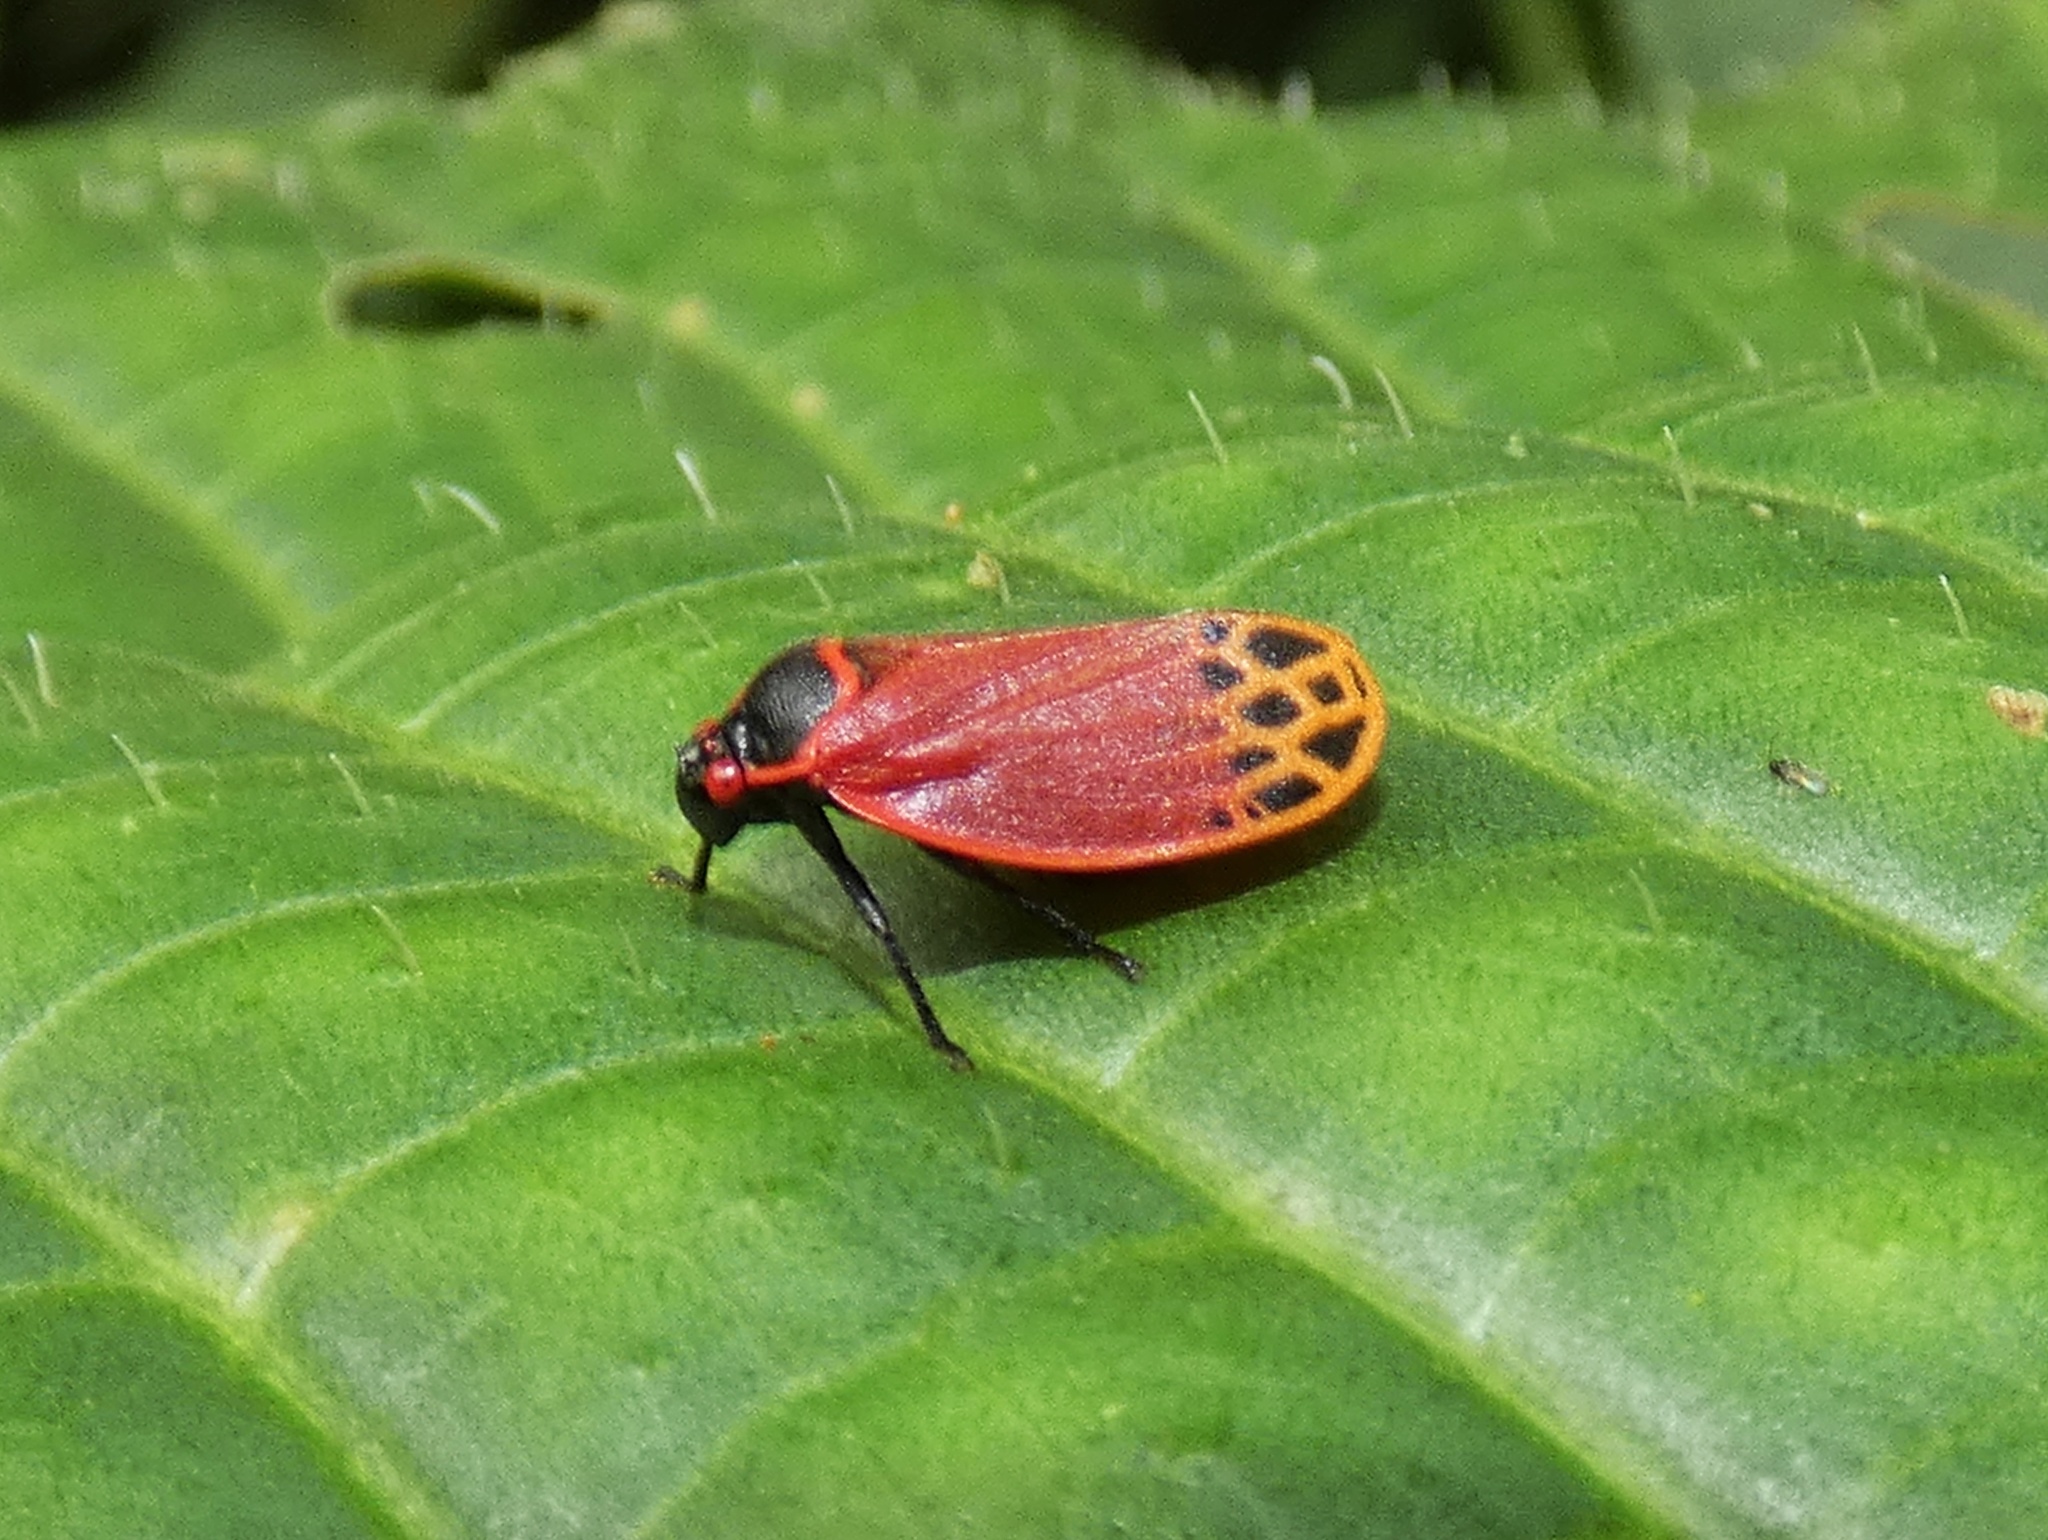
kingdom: Animalia
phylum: Arthropoda
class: Insecta
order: Hemiptera
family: Cercopidae
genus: Tomaspis
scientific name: Tomaspis biolleyi
